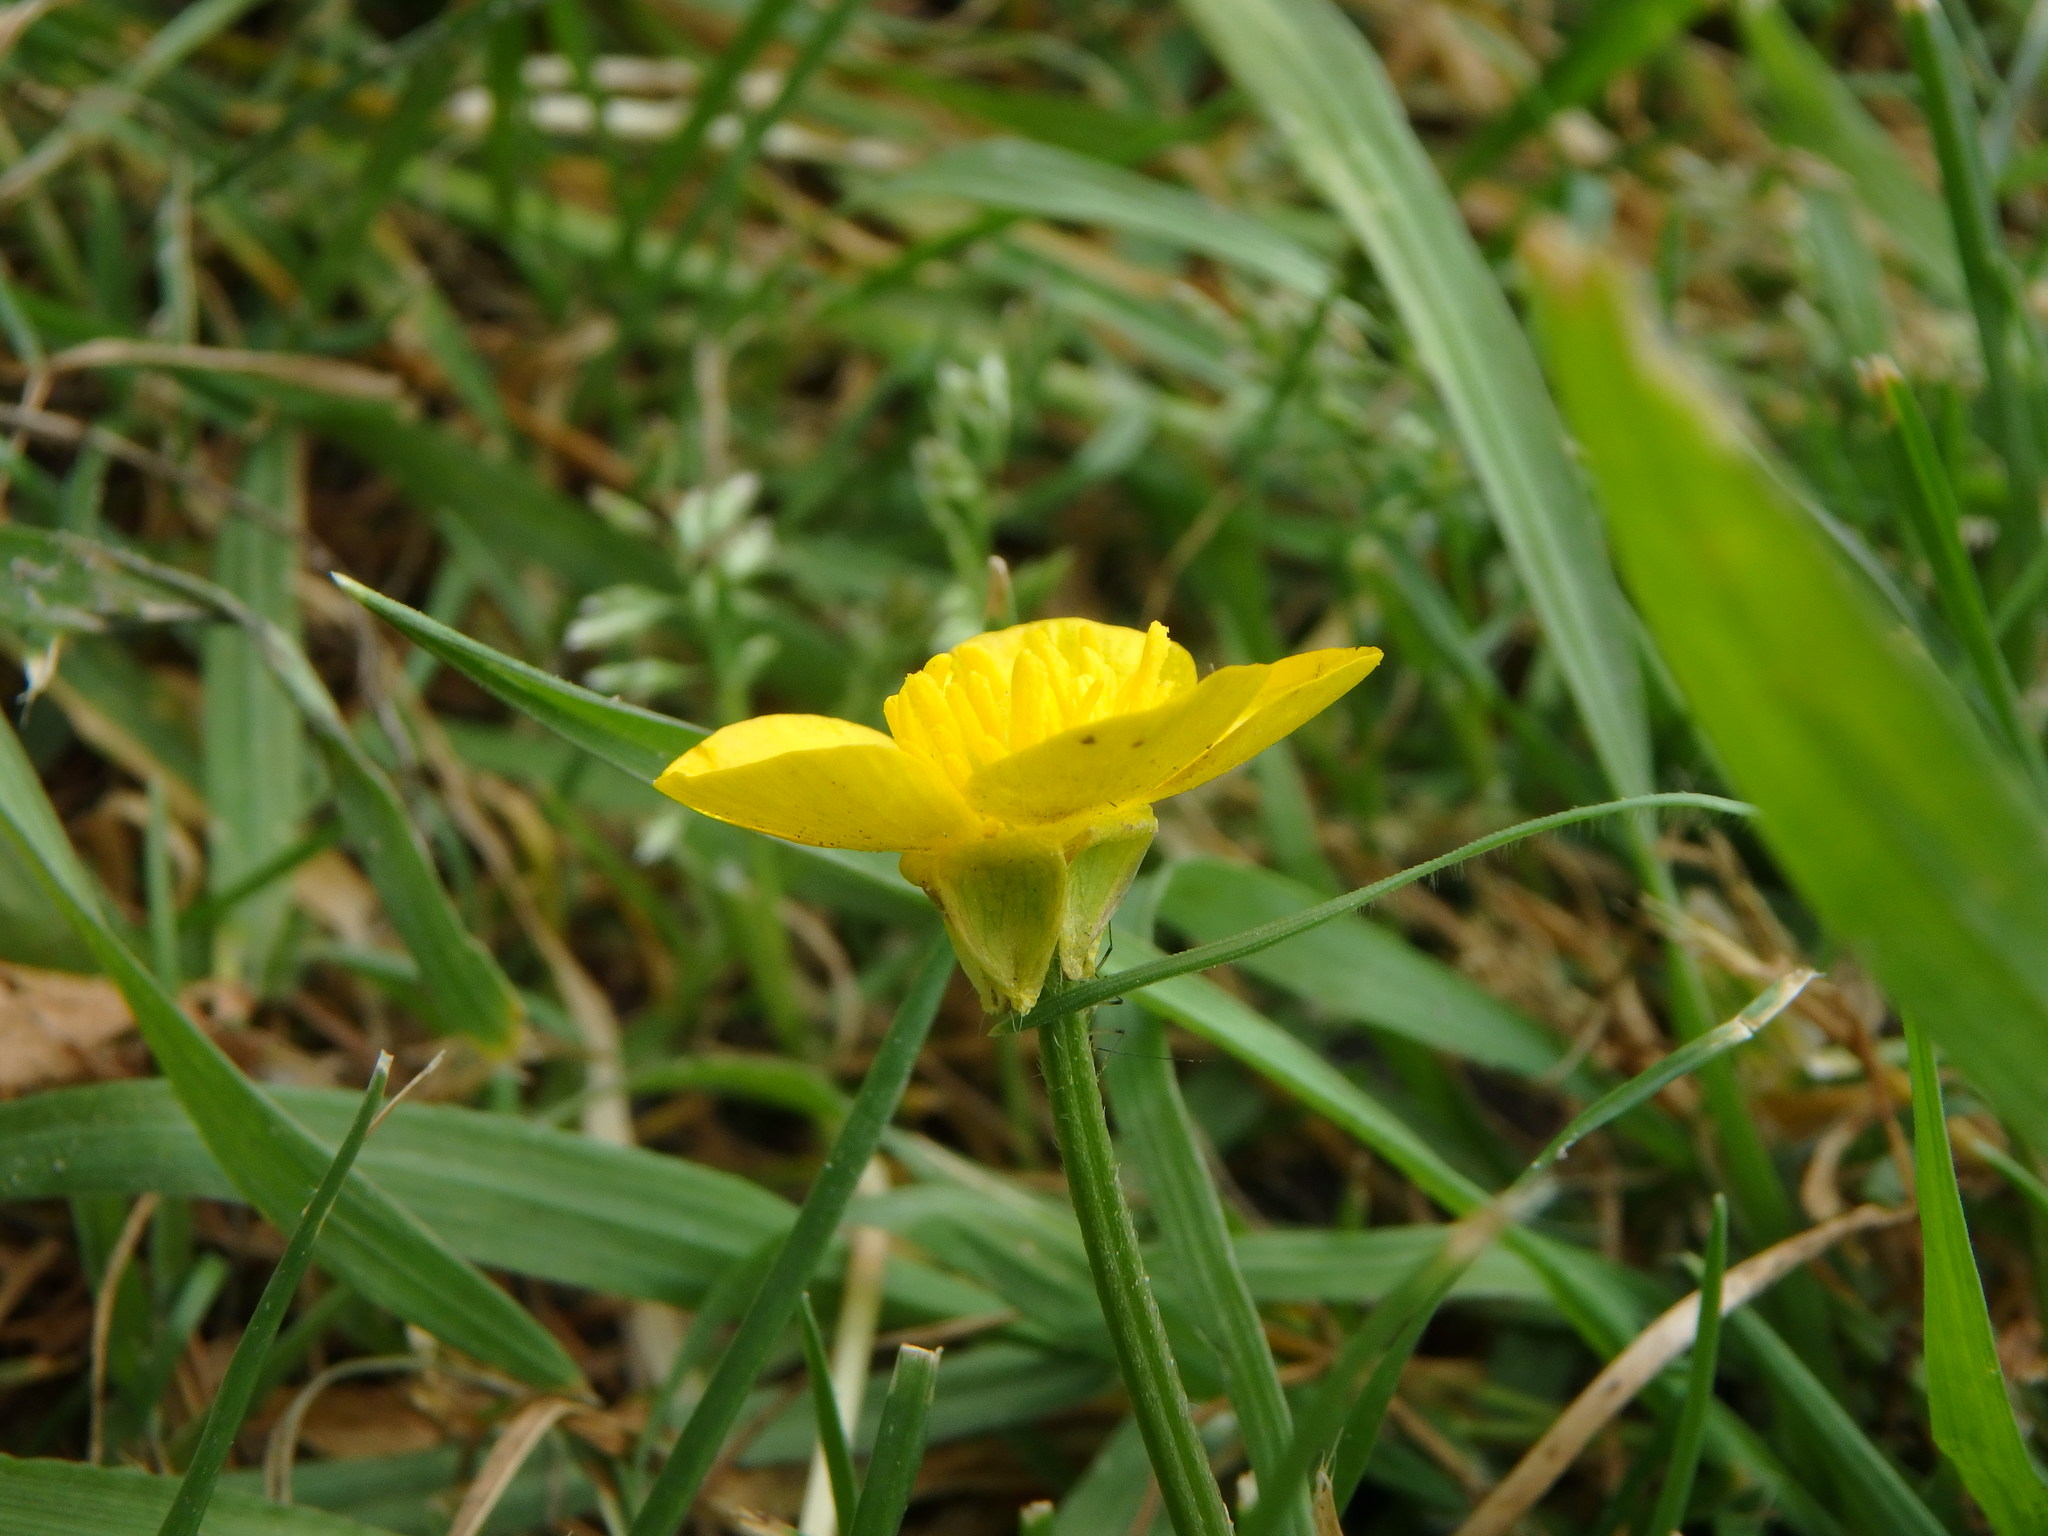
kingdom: Plantae
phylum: Tracheophyta
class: Magnoliopsida
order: Ranunculales
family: Ranunculaceae
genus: Ranunculus
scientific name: Ranunculus bulbosus
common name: Bulbous buttercup
